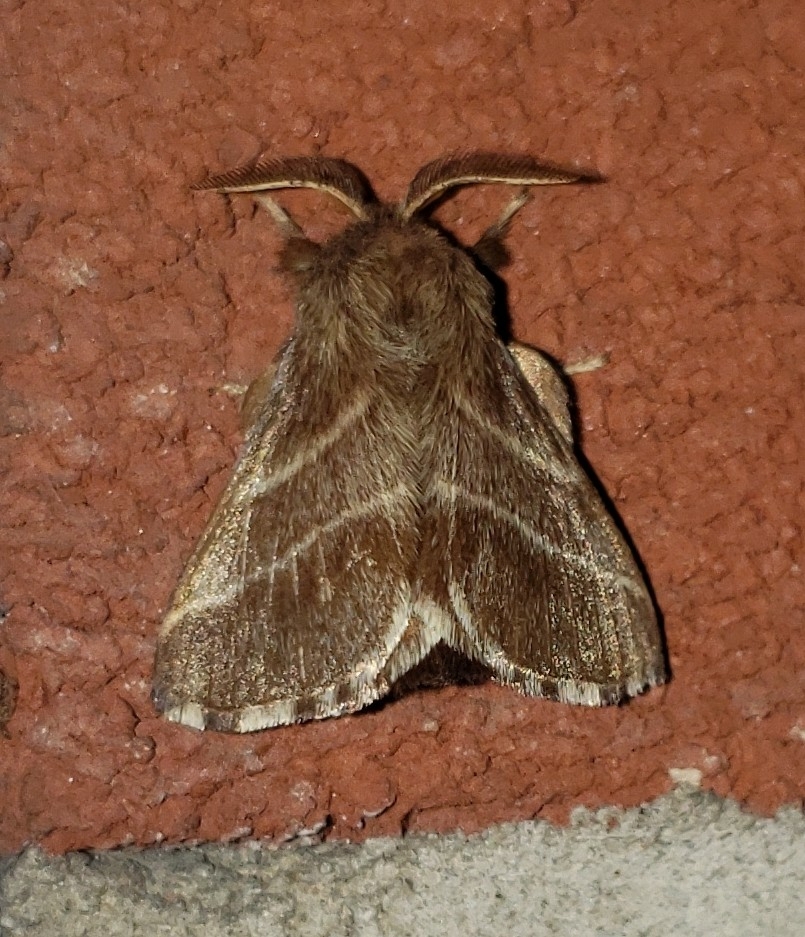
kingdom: Animalia
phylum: Arthropoda
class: Insecta
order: Lepidoptera
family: Lasiocampidae
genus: Malacosoma
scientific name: Malacosoma americana
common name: Eastern tent caterpillar moth
